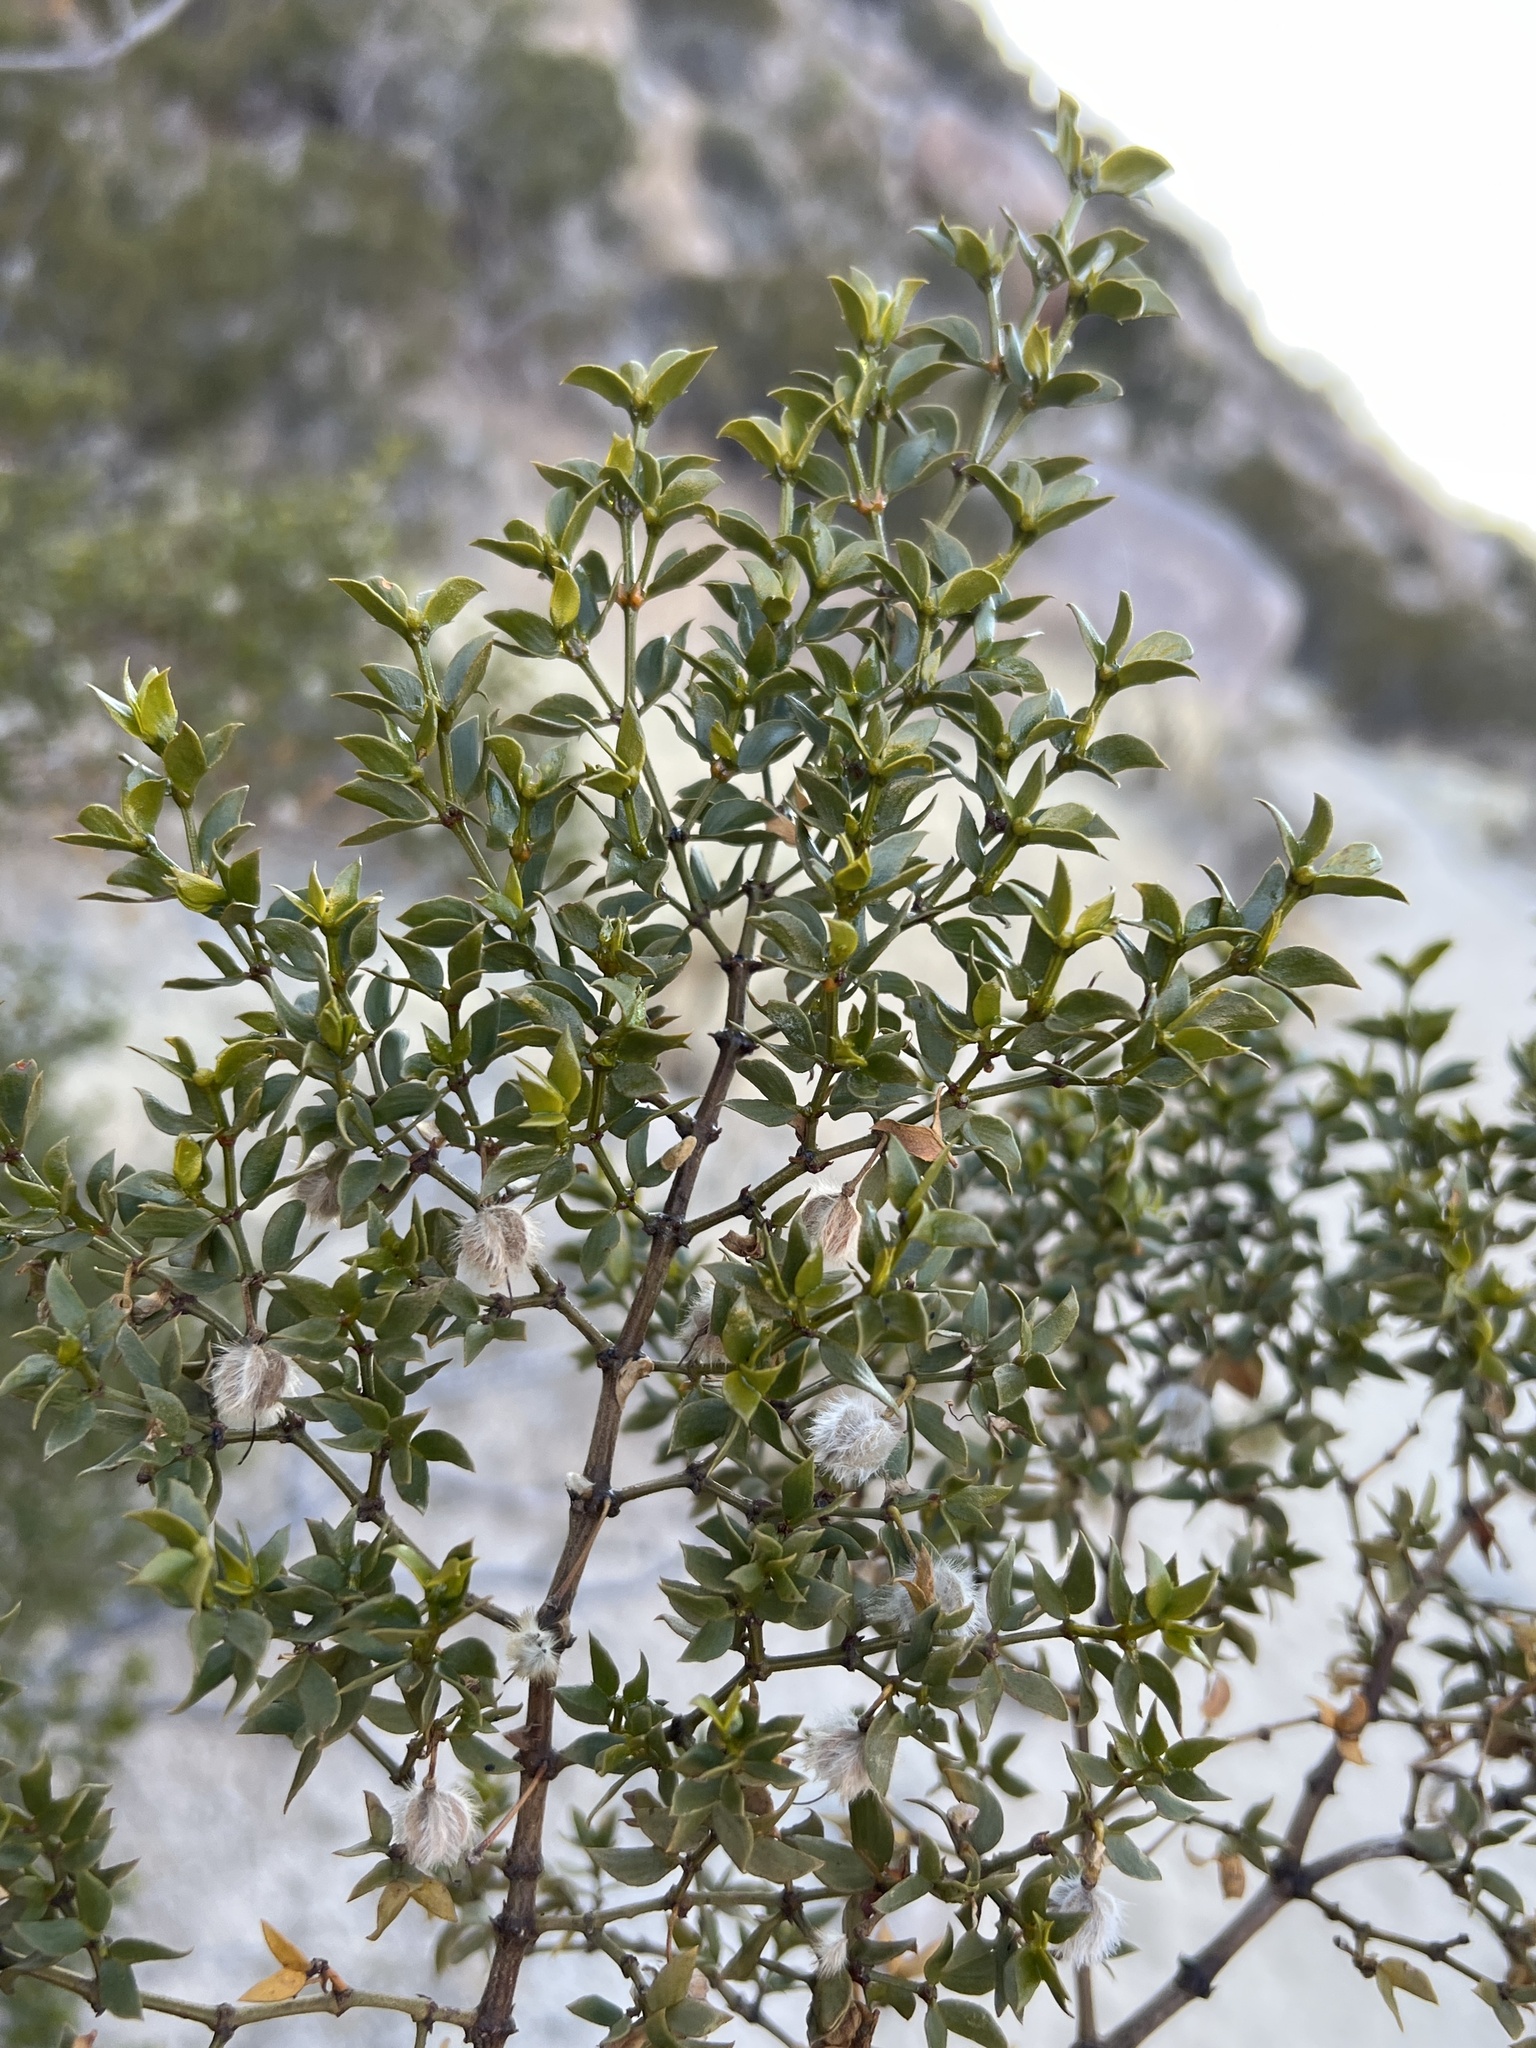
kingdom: Plantae
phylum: Tracheophyta
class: Magnoliopsida
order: Zygophyllales
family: Zygophyllaceae
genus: Larrea
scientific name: Larrea tridentata
